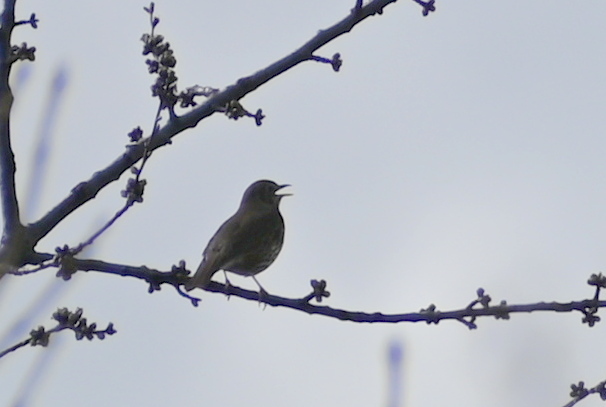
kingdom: Animalia
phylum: Chordata
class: Aves
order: Passeriformes
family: Turdidae
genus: Turdus
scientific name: Turdus philomelos
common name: Song thrush
